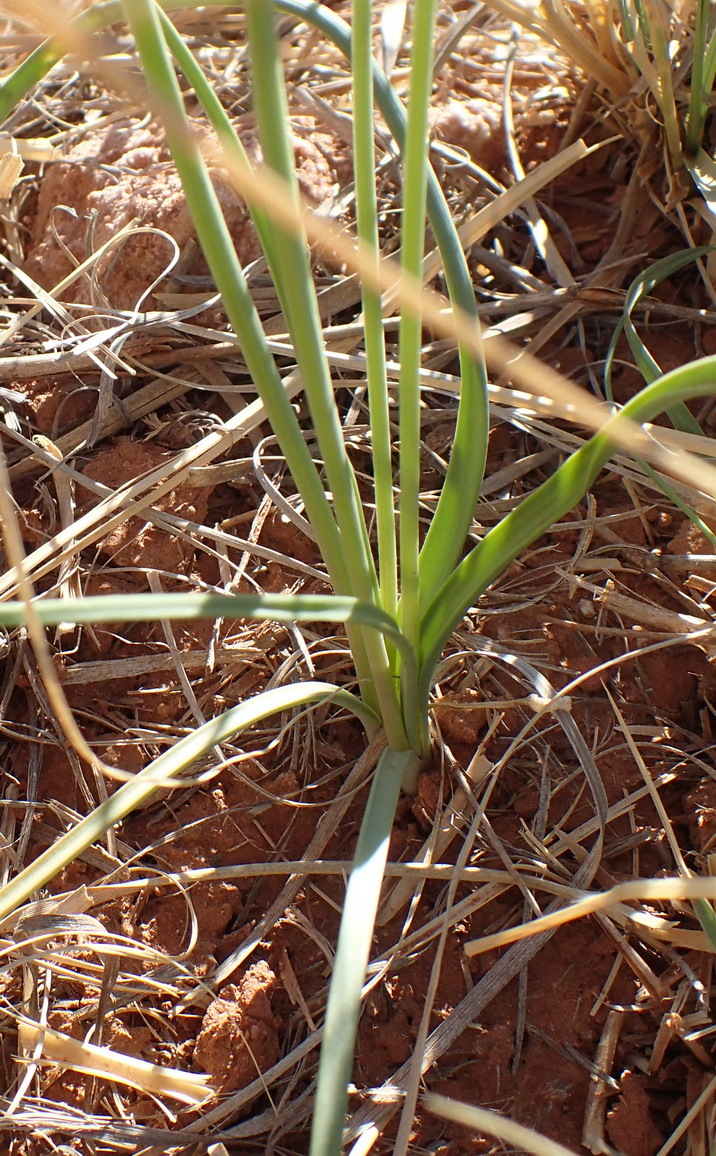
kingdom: Plantae
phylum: Tracheophyta
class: Liliopsida
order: Asparagales
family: Amaryllidaceae
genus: Allium
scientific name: Allium drummondii
